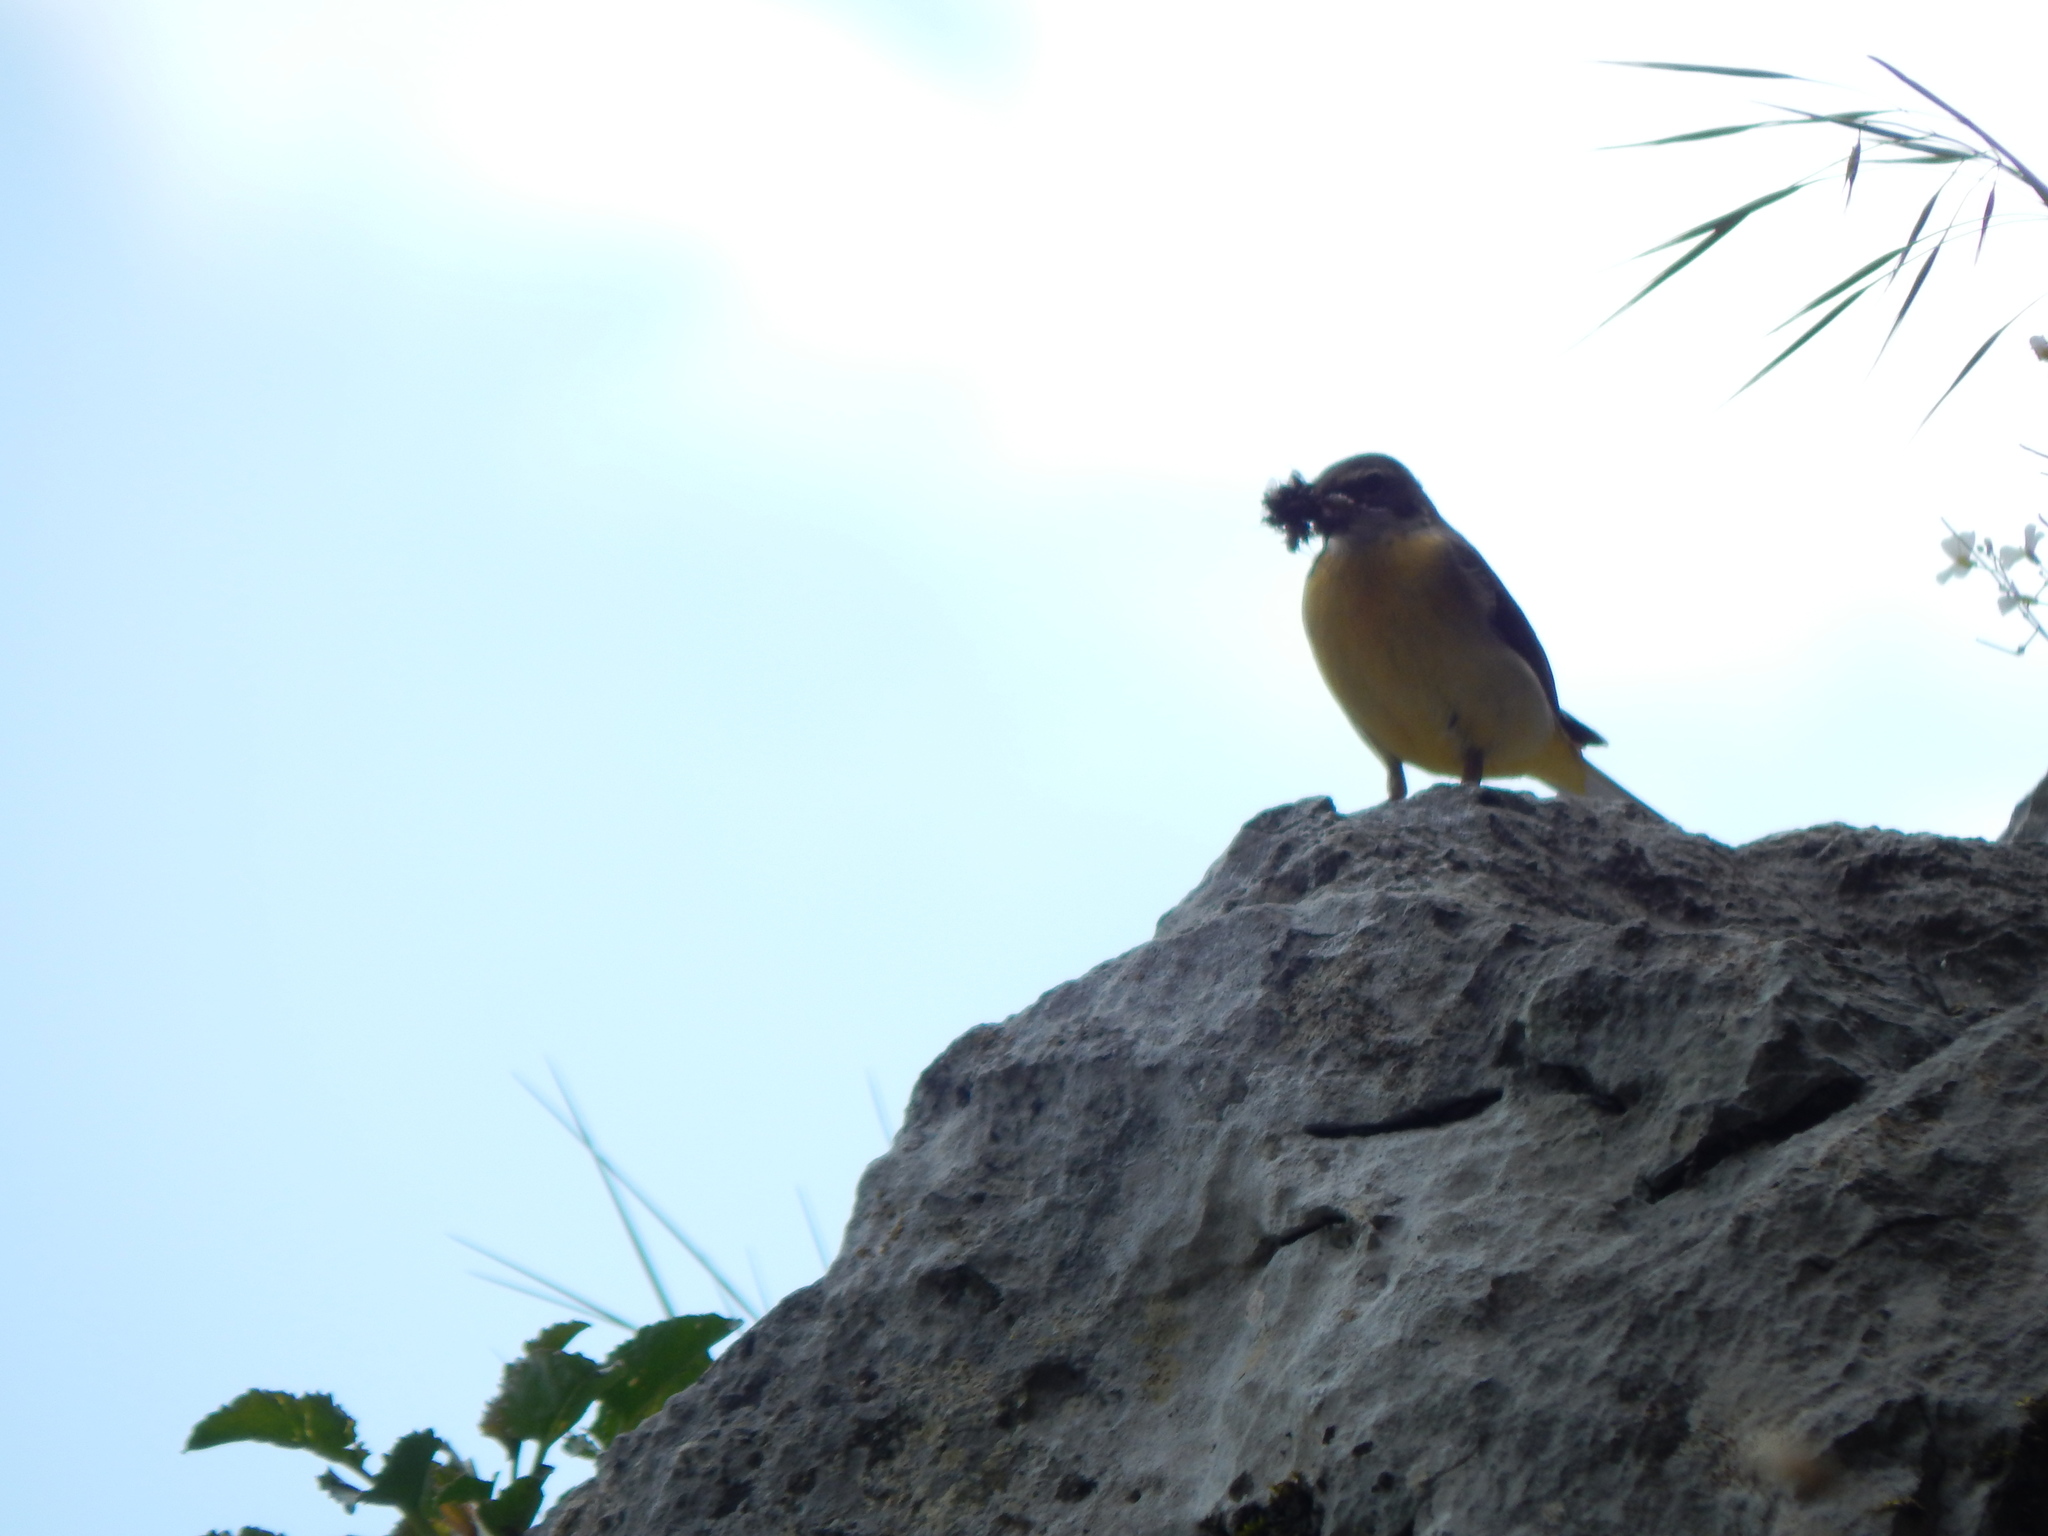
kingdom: Animalia
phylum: Chordata
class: Aves
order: Passeriformes
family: Motacillidae
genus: Motacilla
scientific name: Motacilla cinerea
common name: Grey wagtail
